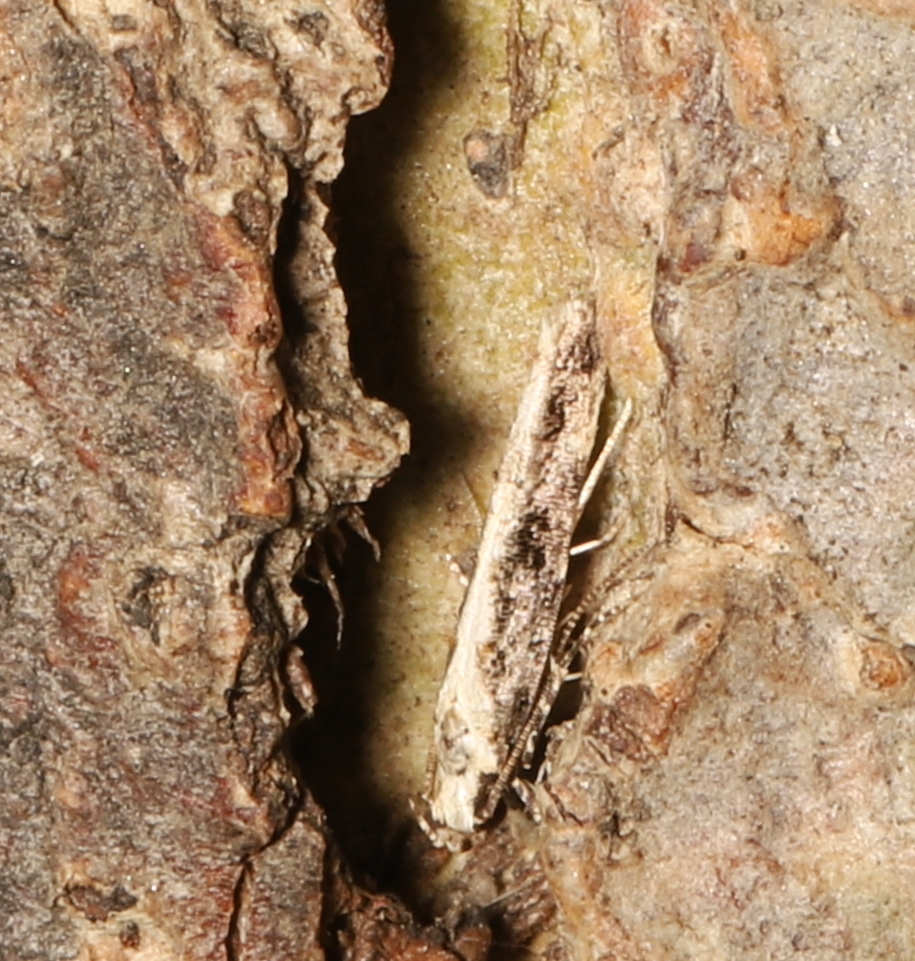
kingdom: Animalia
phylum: Arthropoda
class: Insecta
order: Lepidoptera
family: Gelechiidae
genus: Telphusa
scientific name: Telphusa longifasciella
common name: Y-backed telphusa
